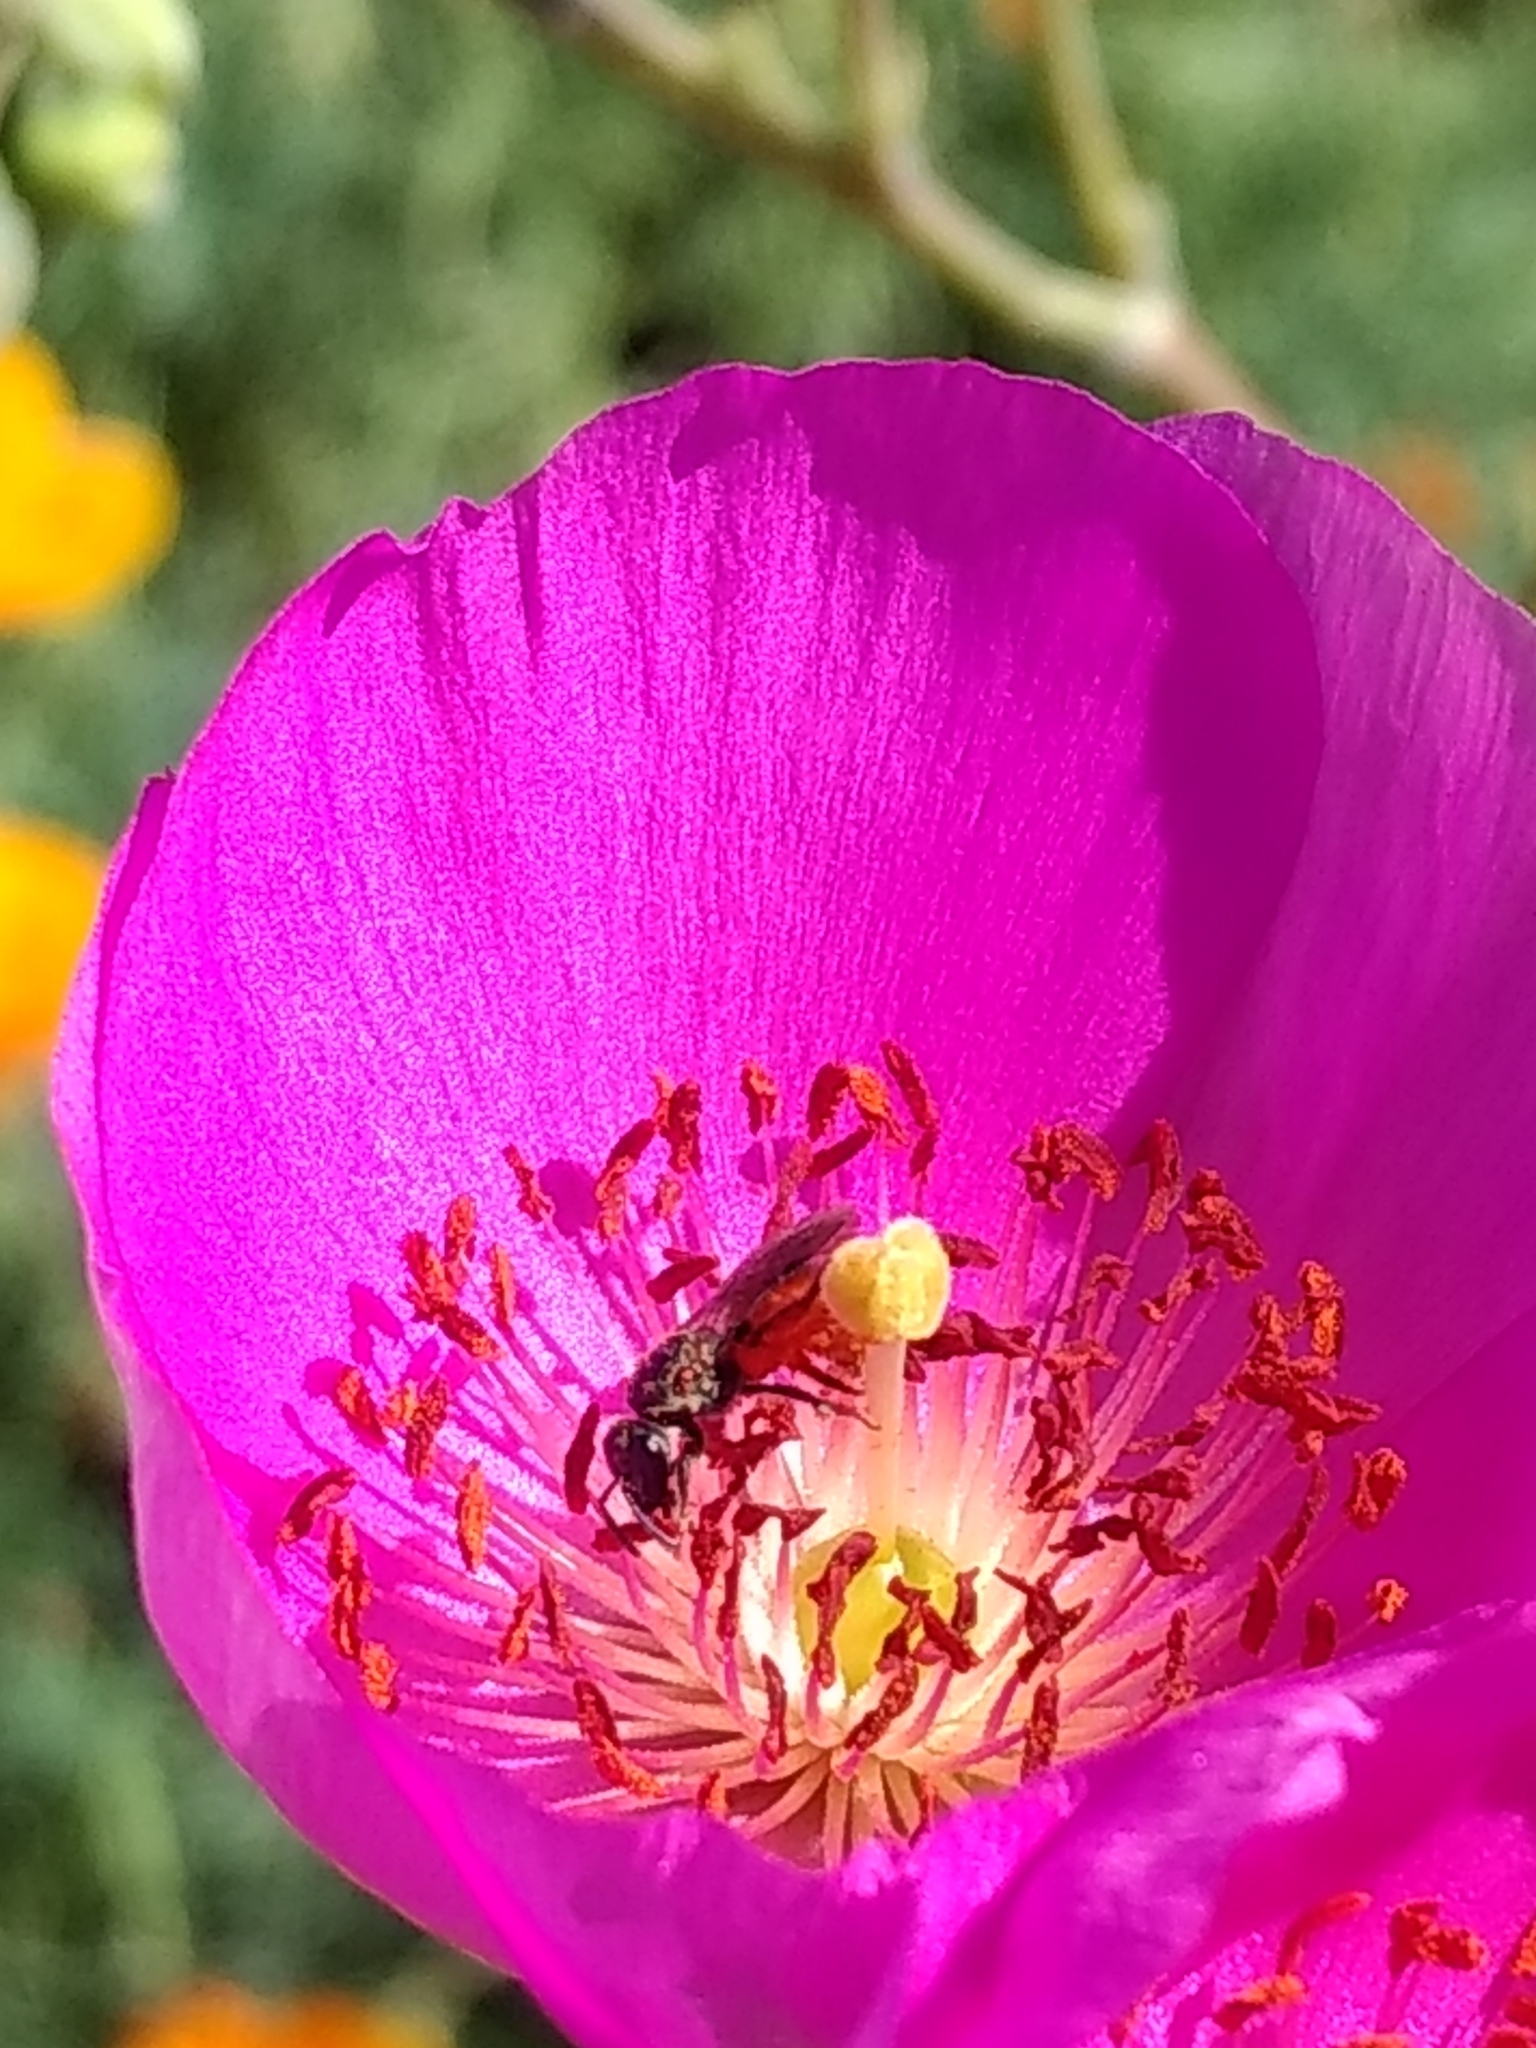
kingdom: Animalia
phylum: Arthropoda
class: Insecta
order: Hymenoptera
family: Halictidae
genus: Lasioglossum
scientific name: Lasioglossum ovaliceps
